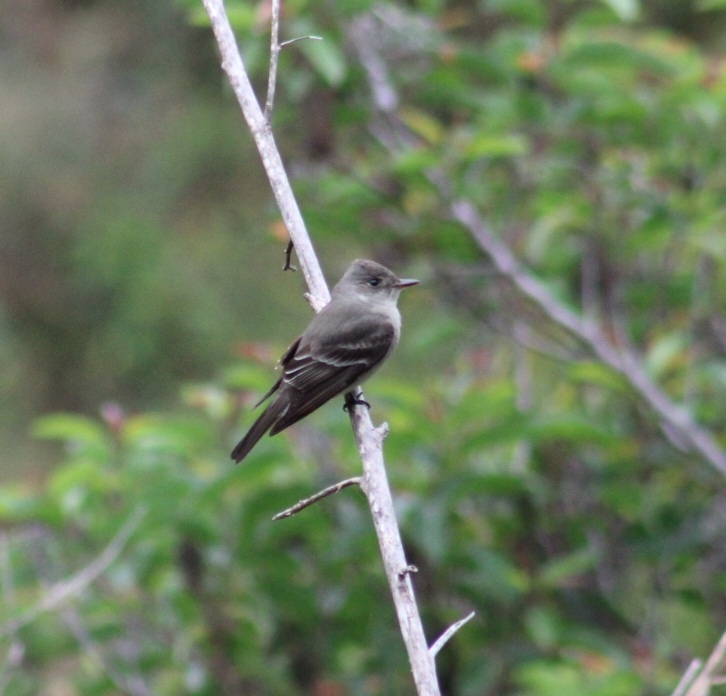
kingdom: Animalia
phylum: Chordata
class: Aves
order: Passeriformes
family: Tyrannidae
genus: Contopus
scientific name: Contopus sordidulus
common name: Western wood-pewee
